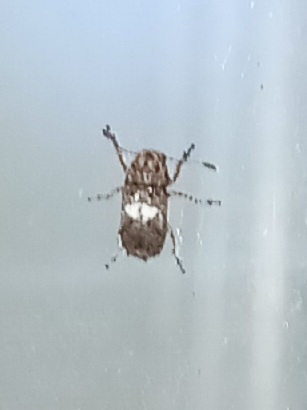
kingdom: Animalia
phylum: Arthropoda
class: Insecta
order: Coleoptera
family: Anthribidae
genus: Toxonotus
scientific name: Toxonotus cornutus
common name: Fungus weevil
